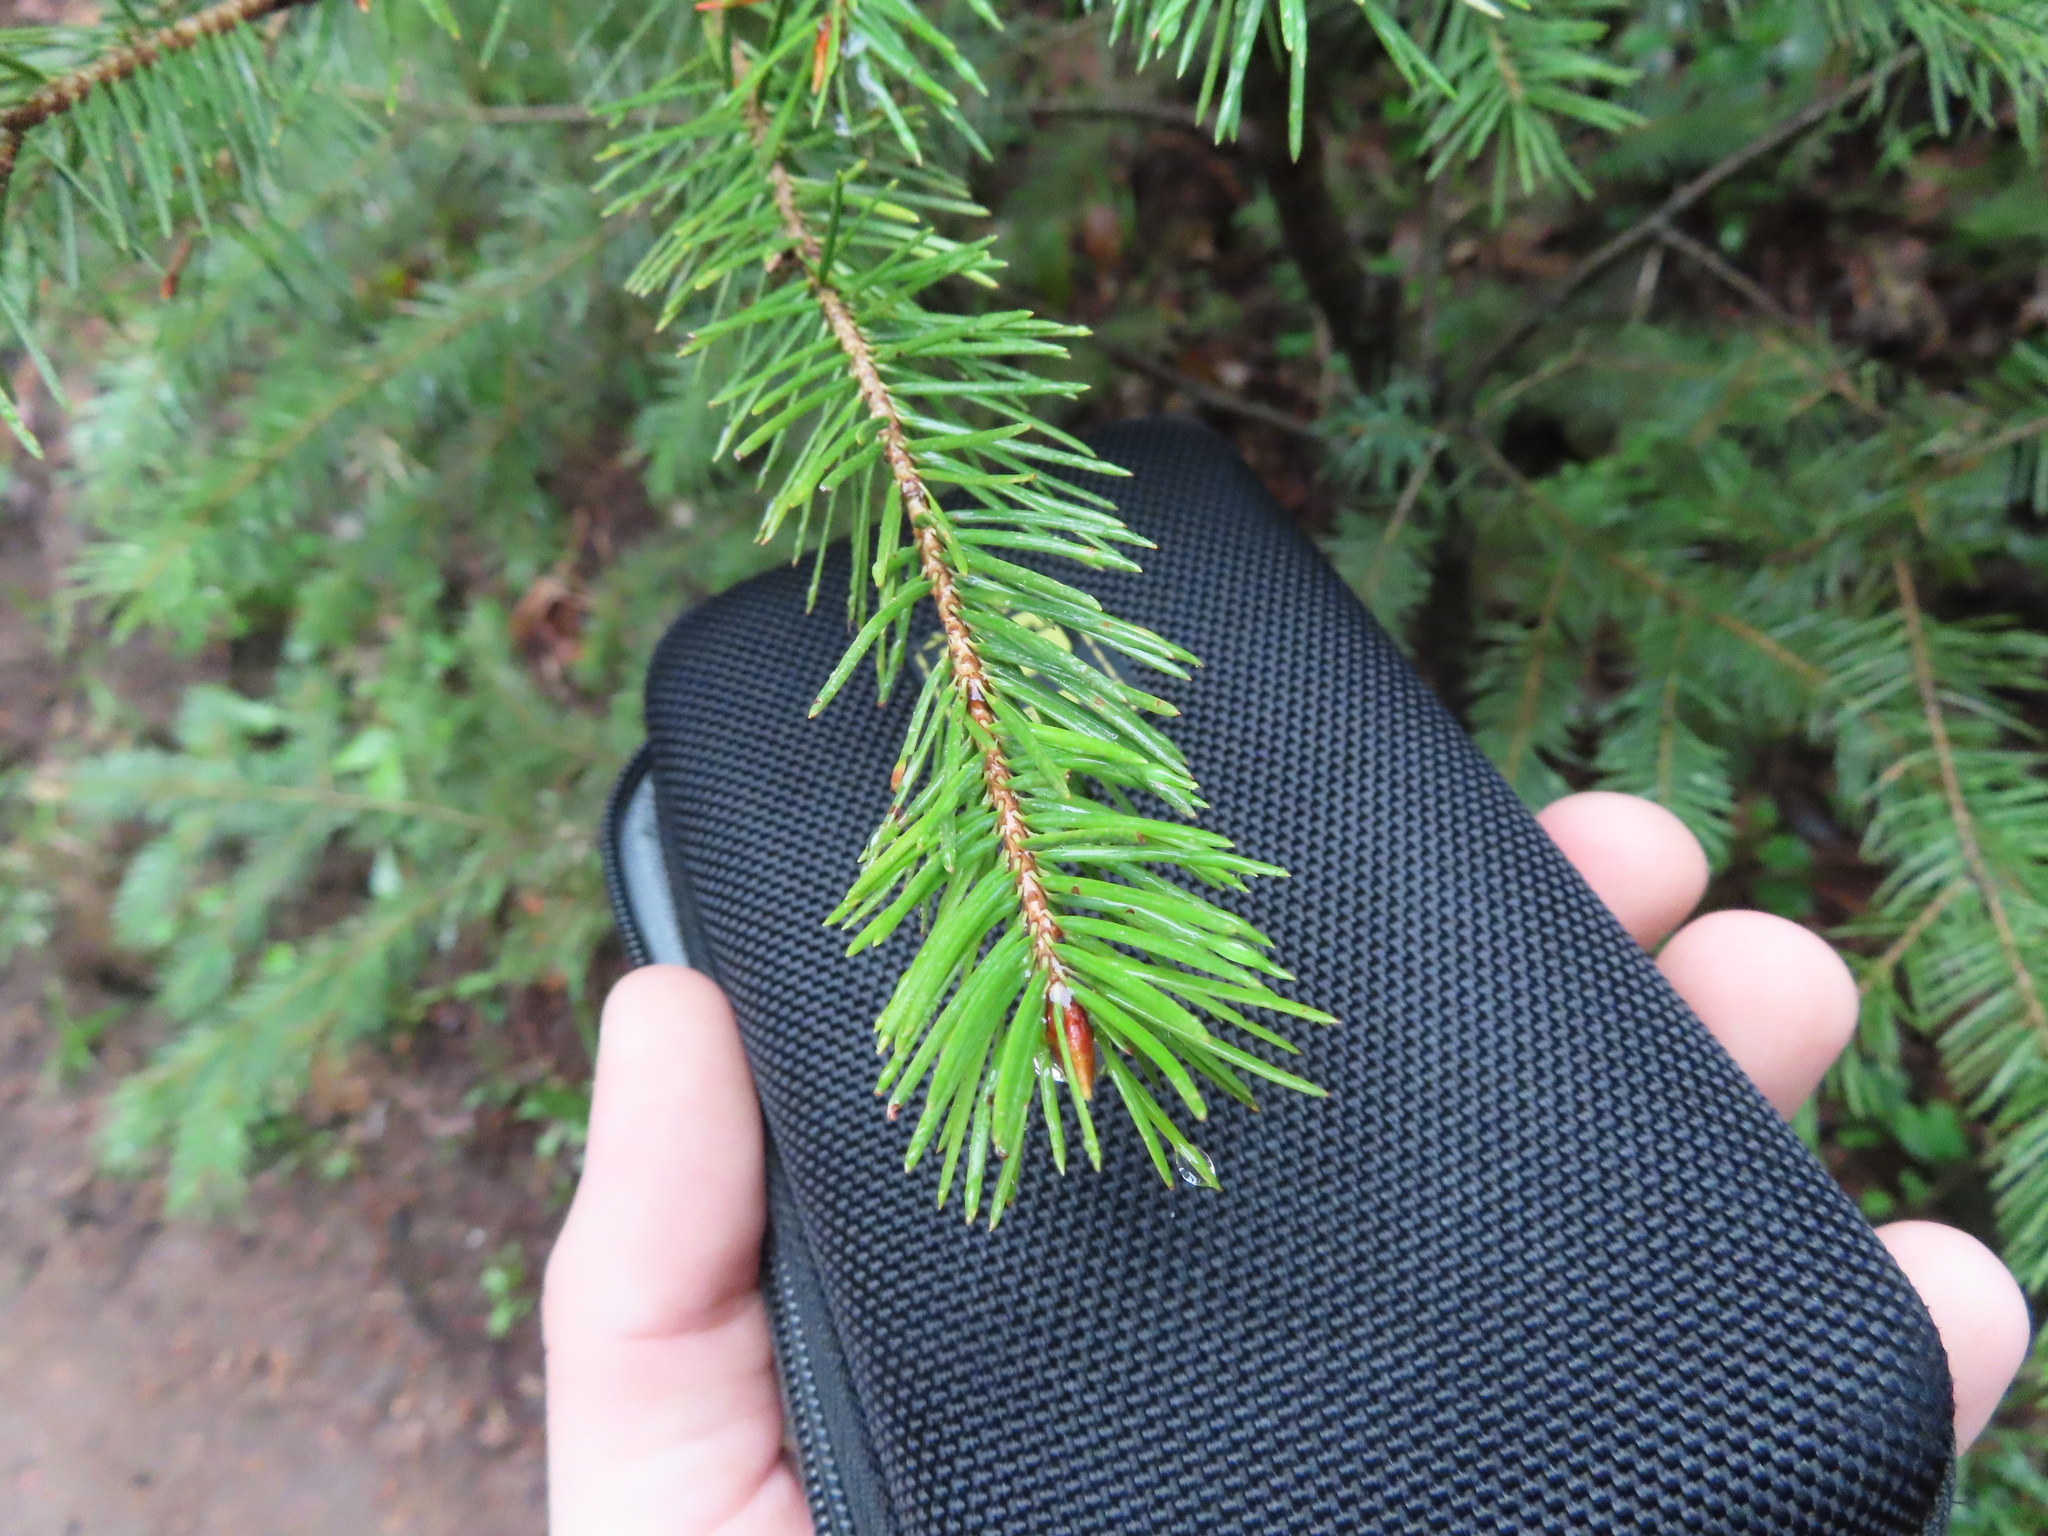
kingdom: Plantae
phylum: Tracheophyta
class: Pinopsida
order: Pinales
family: Pinaceae
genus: Pseudotsuga
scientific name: Pseudotsuga menziesii
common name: Douglas fir
